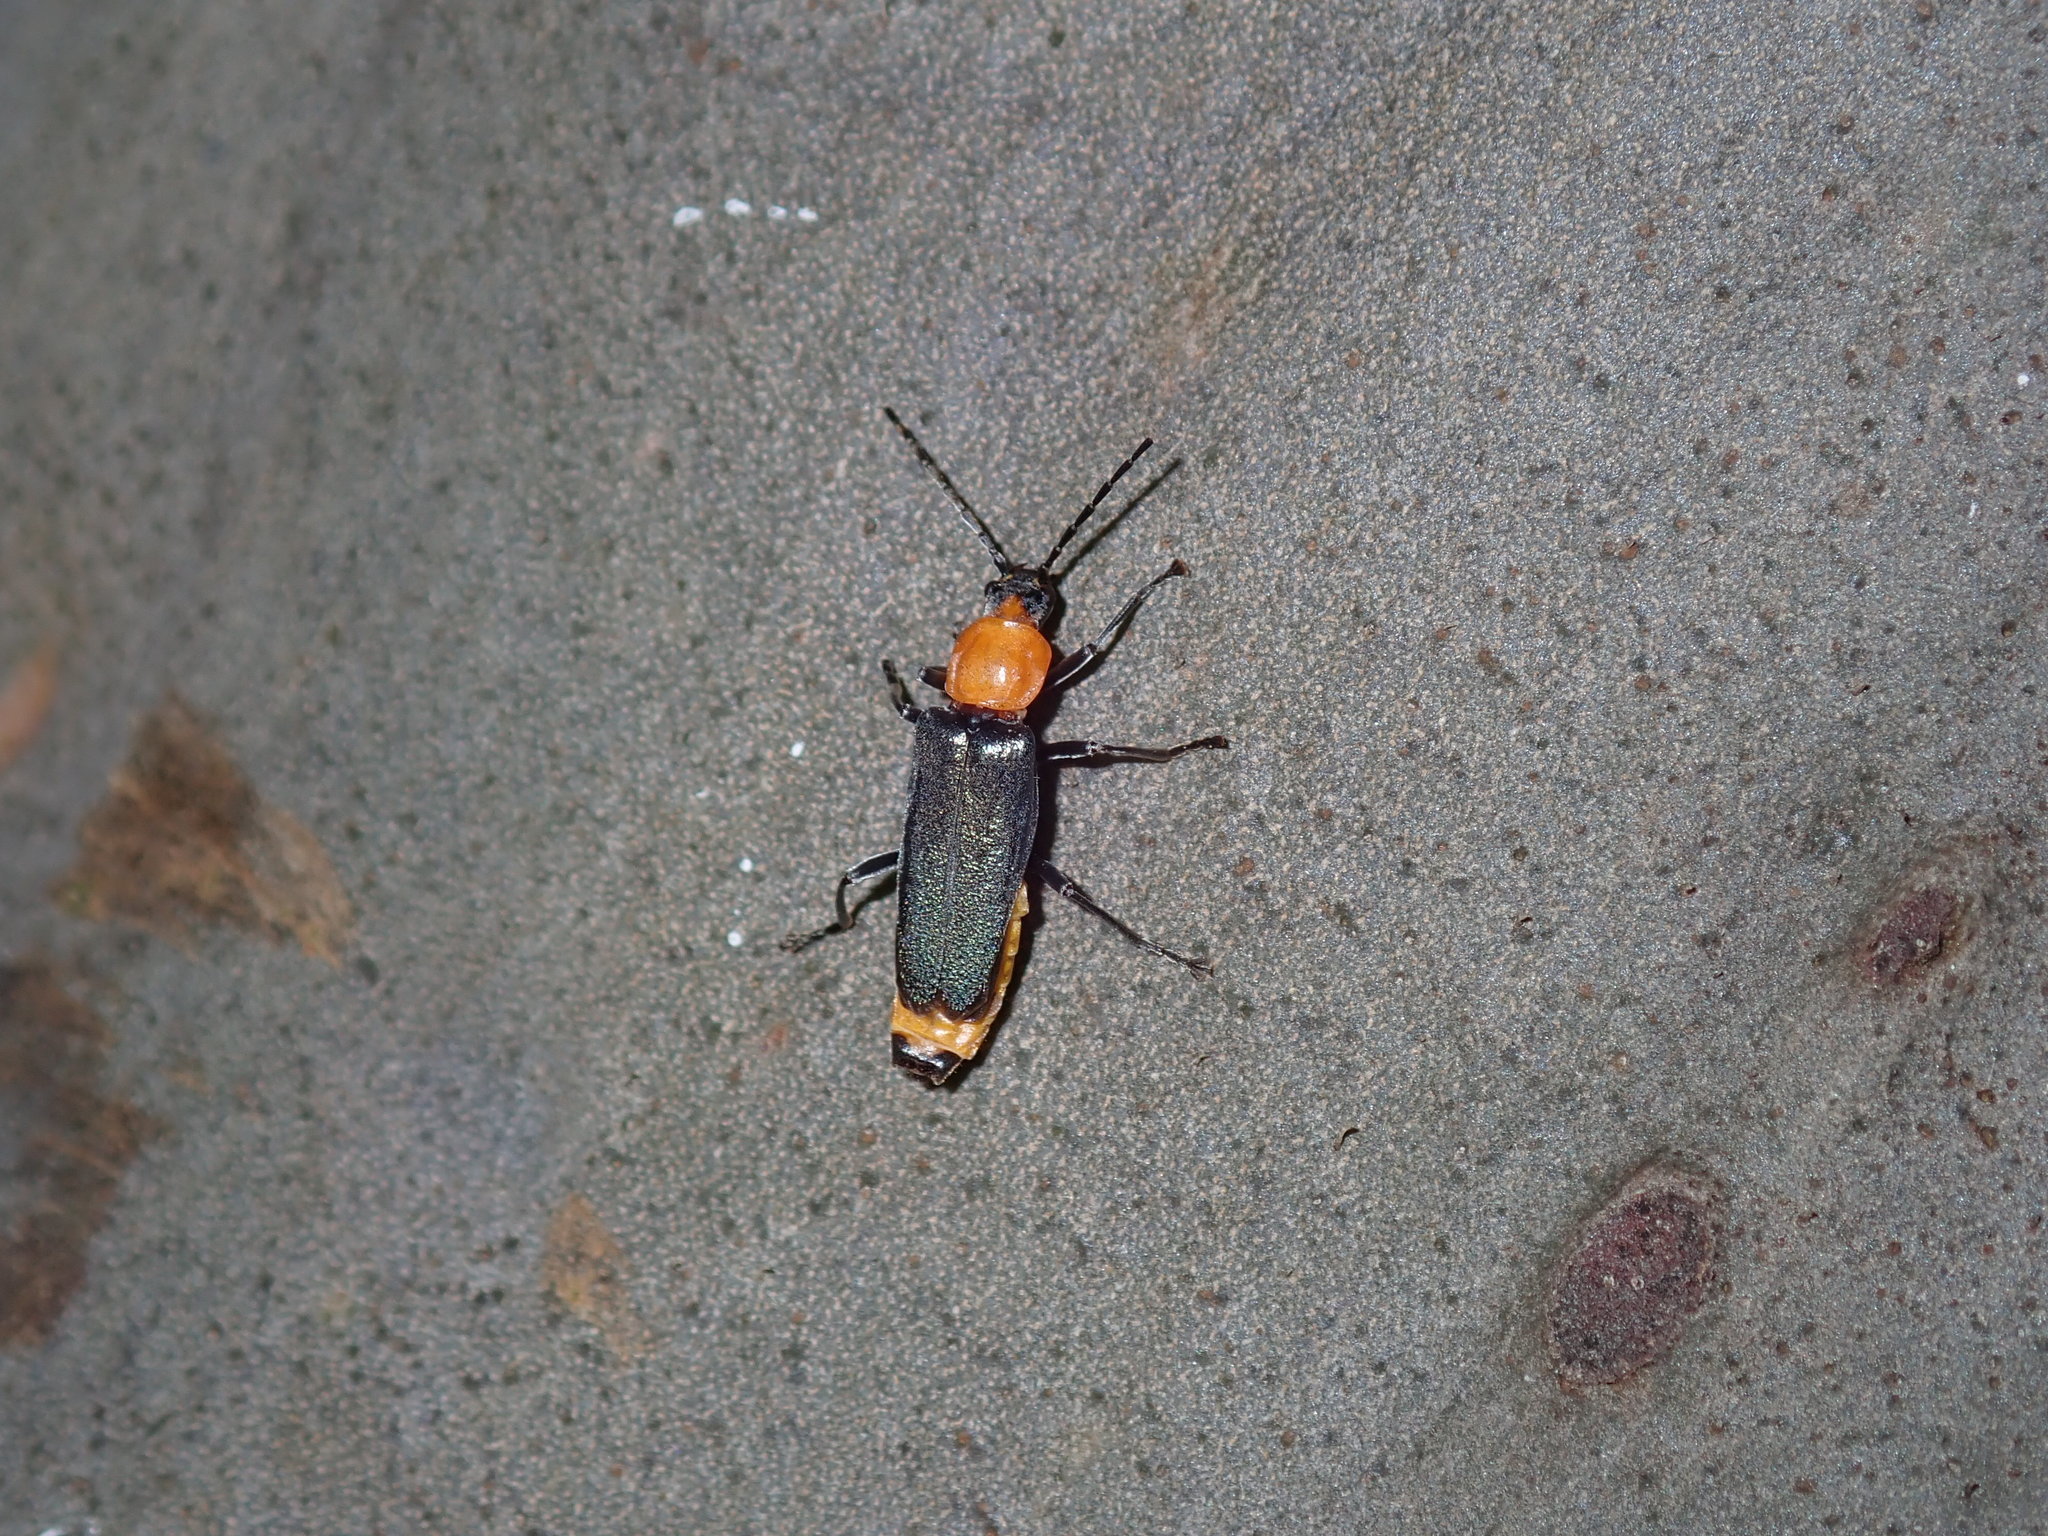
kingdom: Animalia
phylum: Arthropoda
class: Insecta
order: Coleoptera
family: Cantharidae
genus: Chauliognathus
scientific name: Chauliognathus
